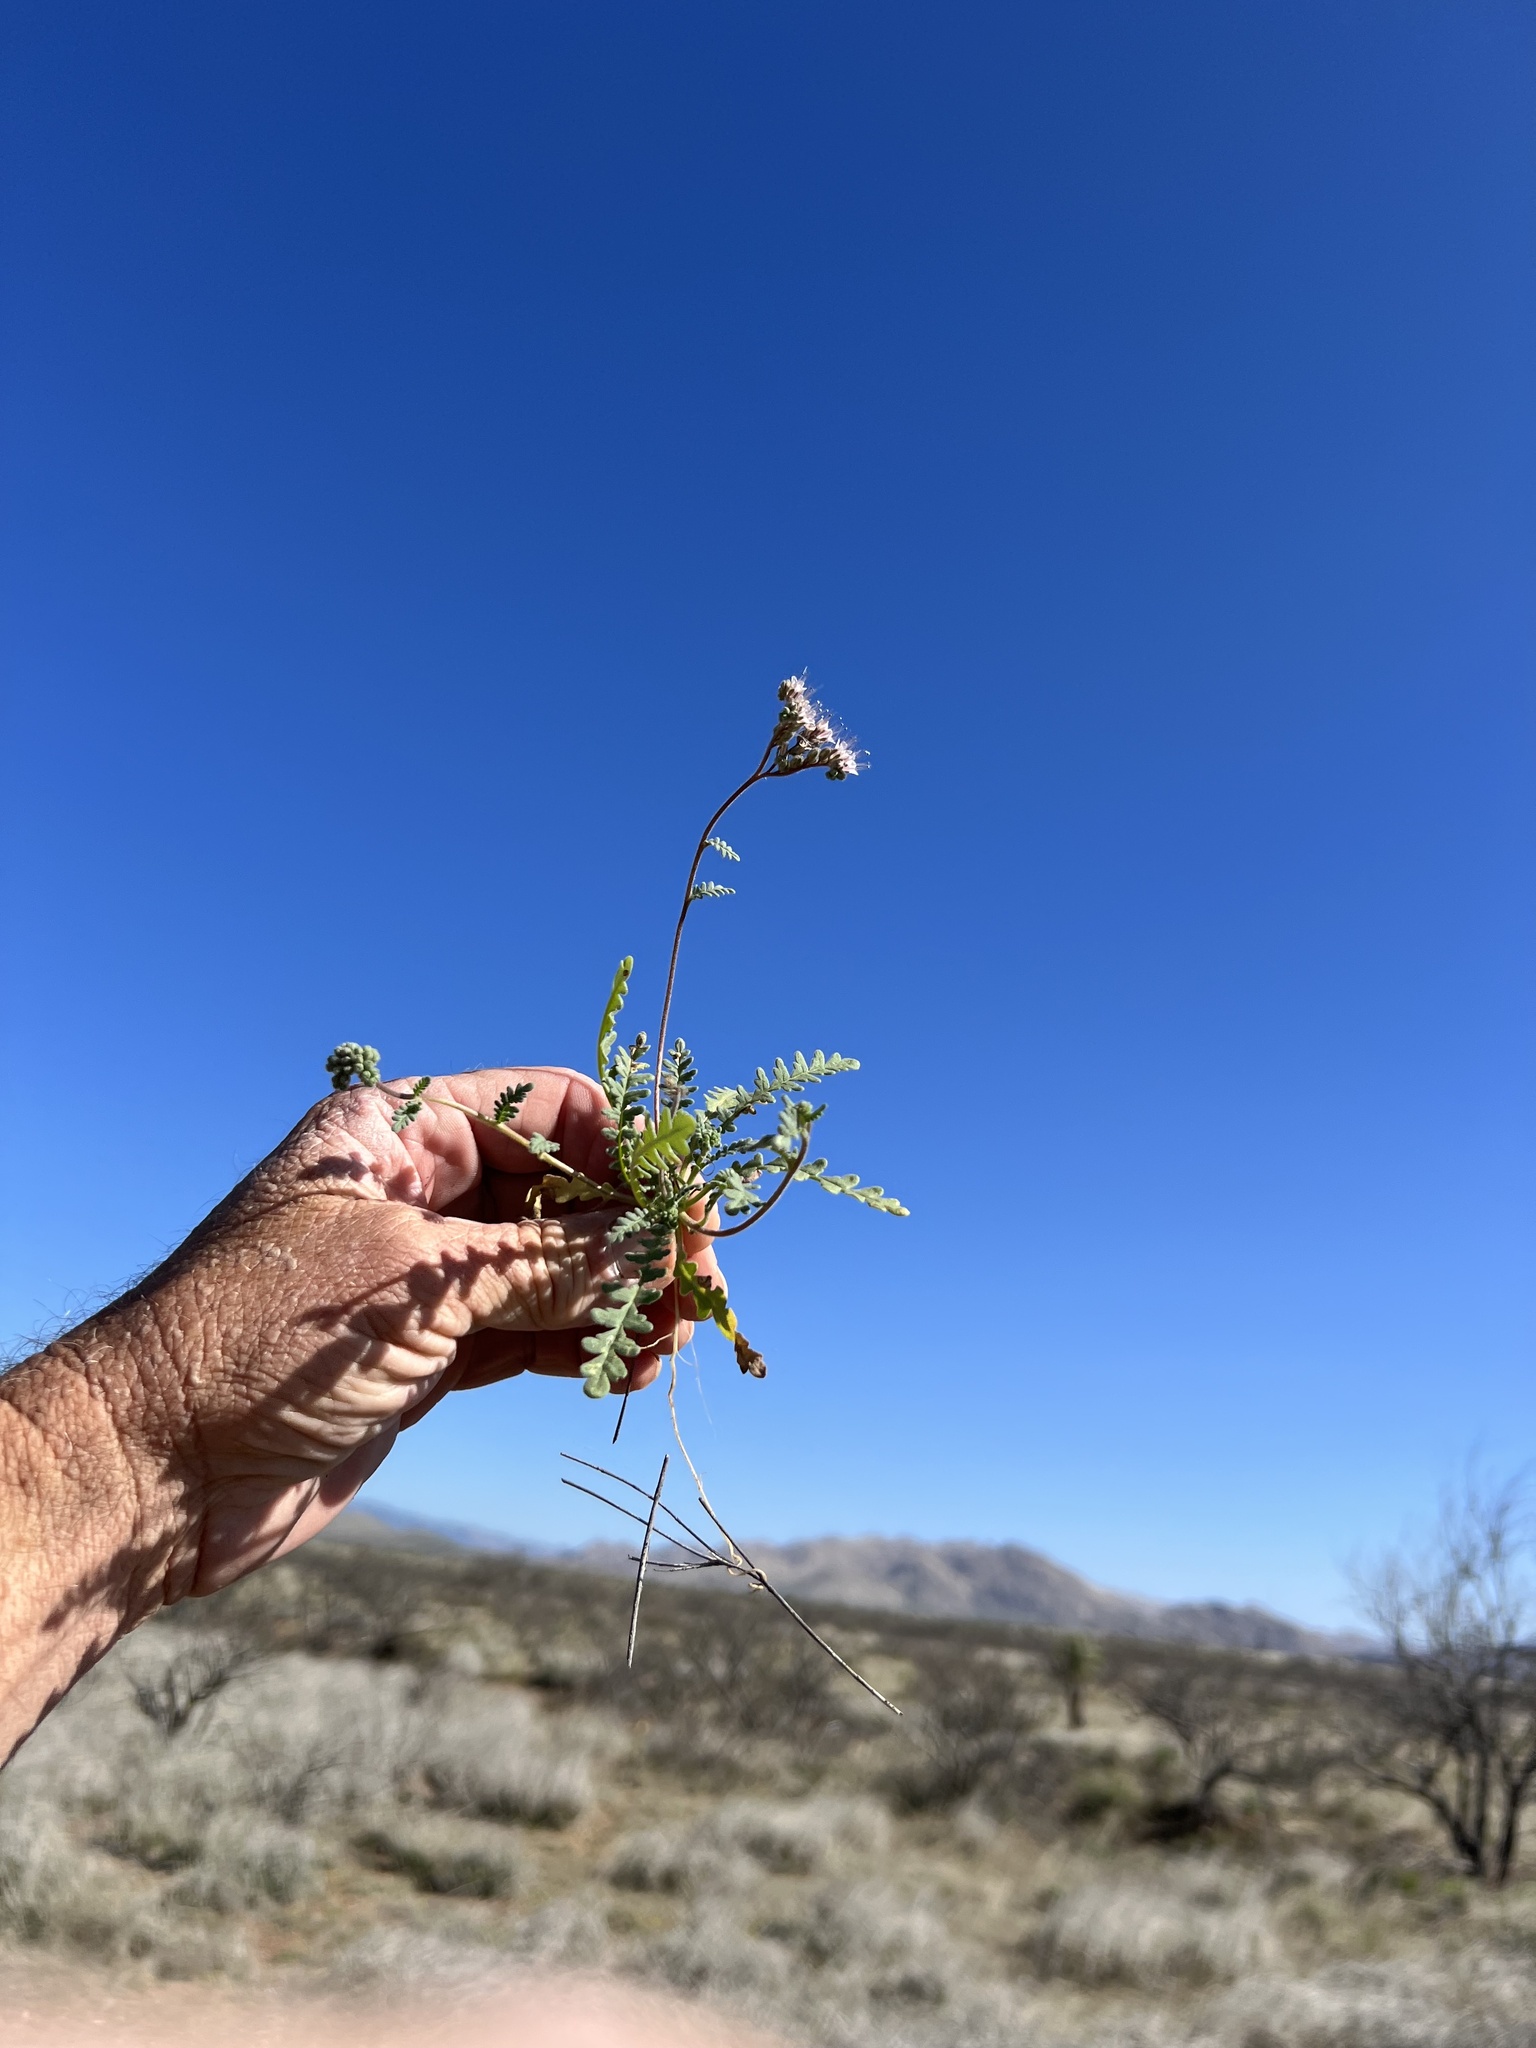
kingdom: Plantae
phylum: Tracheophyta
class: Magnoliopsida
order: Boraginales
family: Hydrophyllaceae
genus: Phacelia
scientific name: Phacelia arizonica
